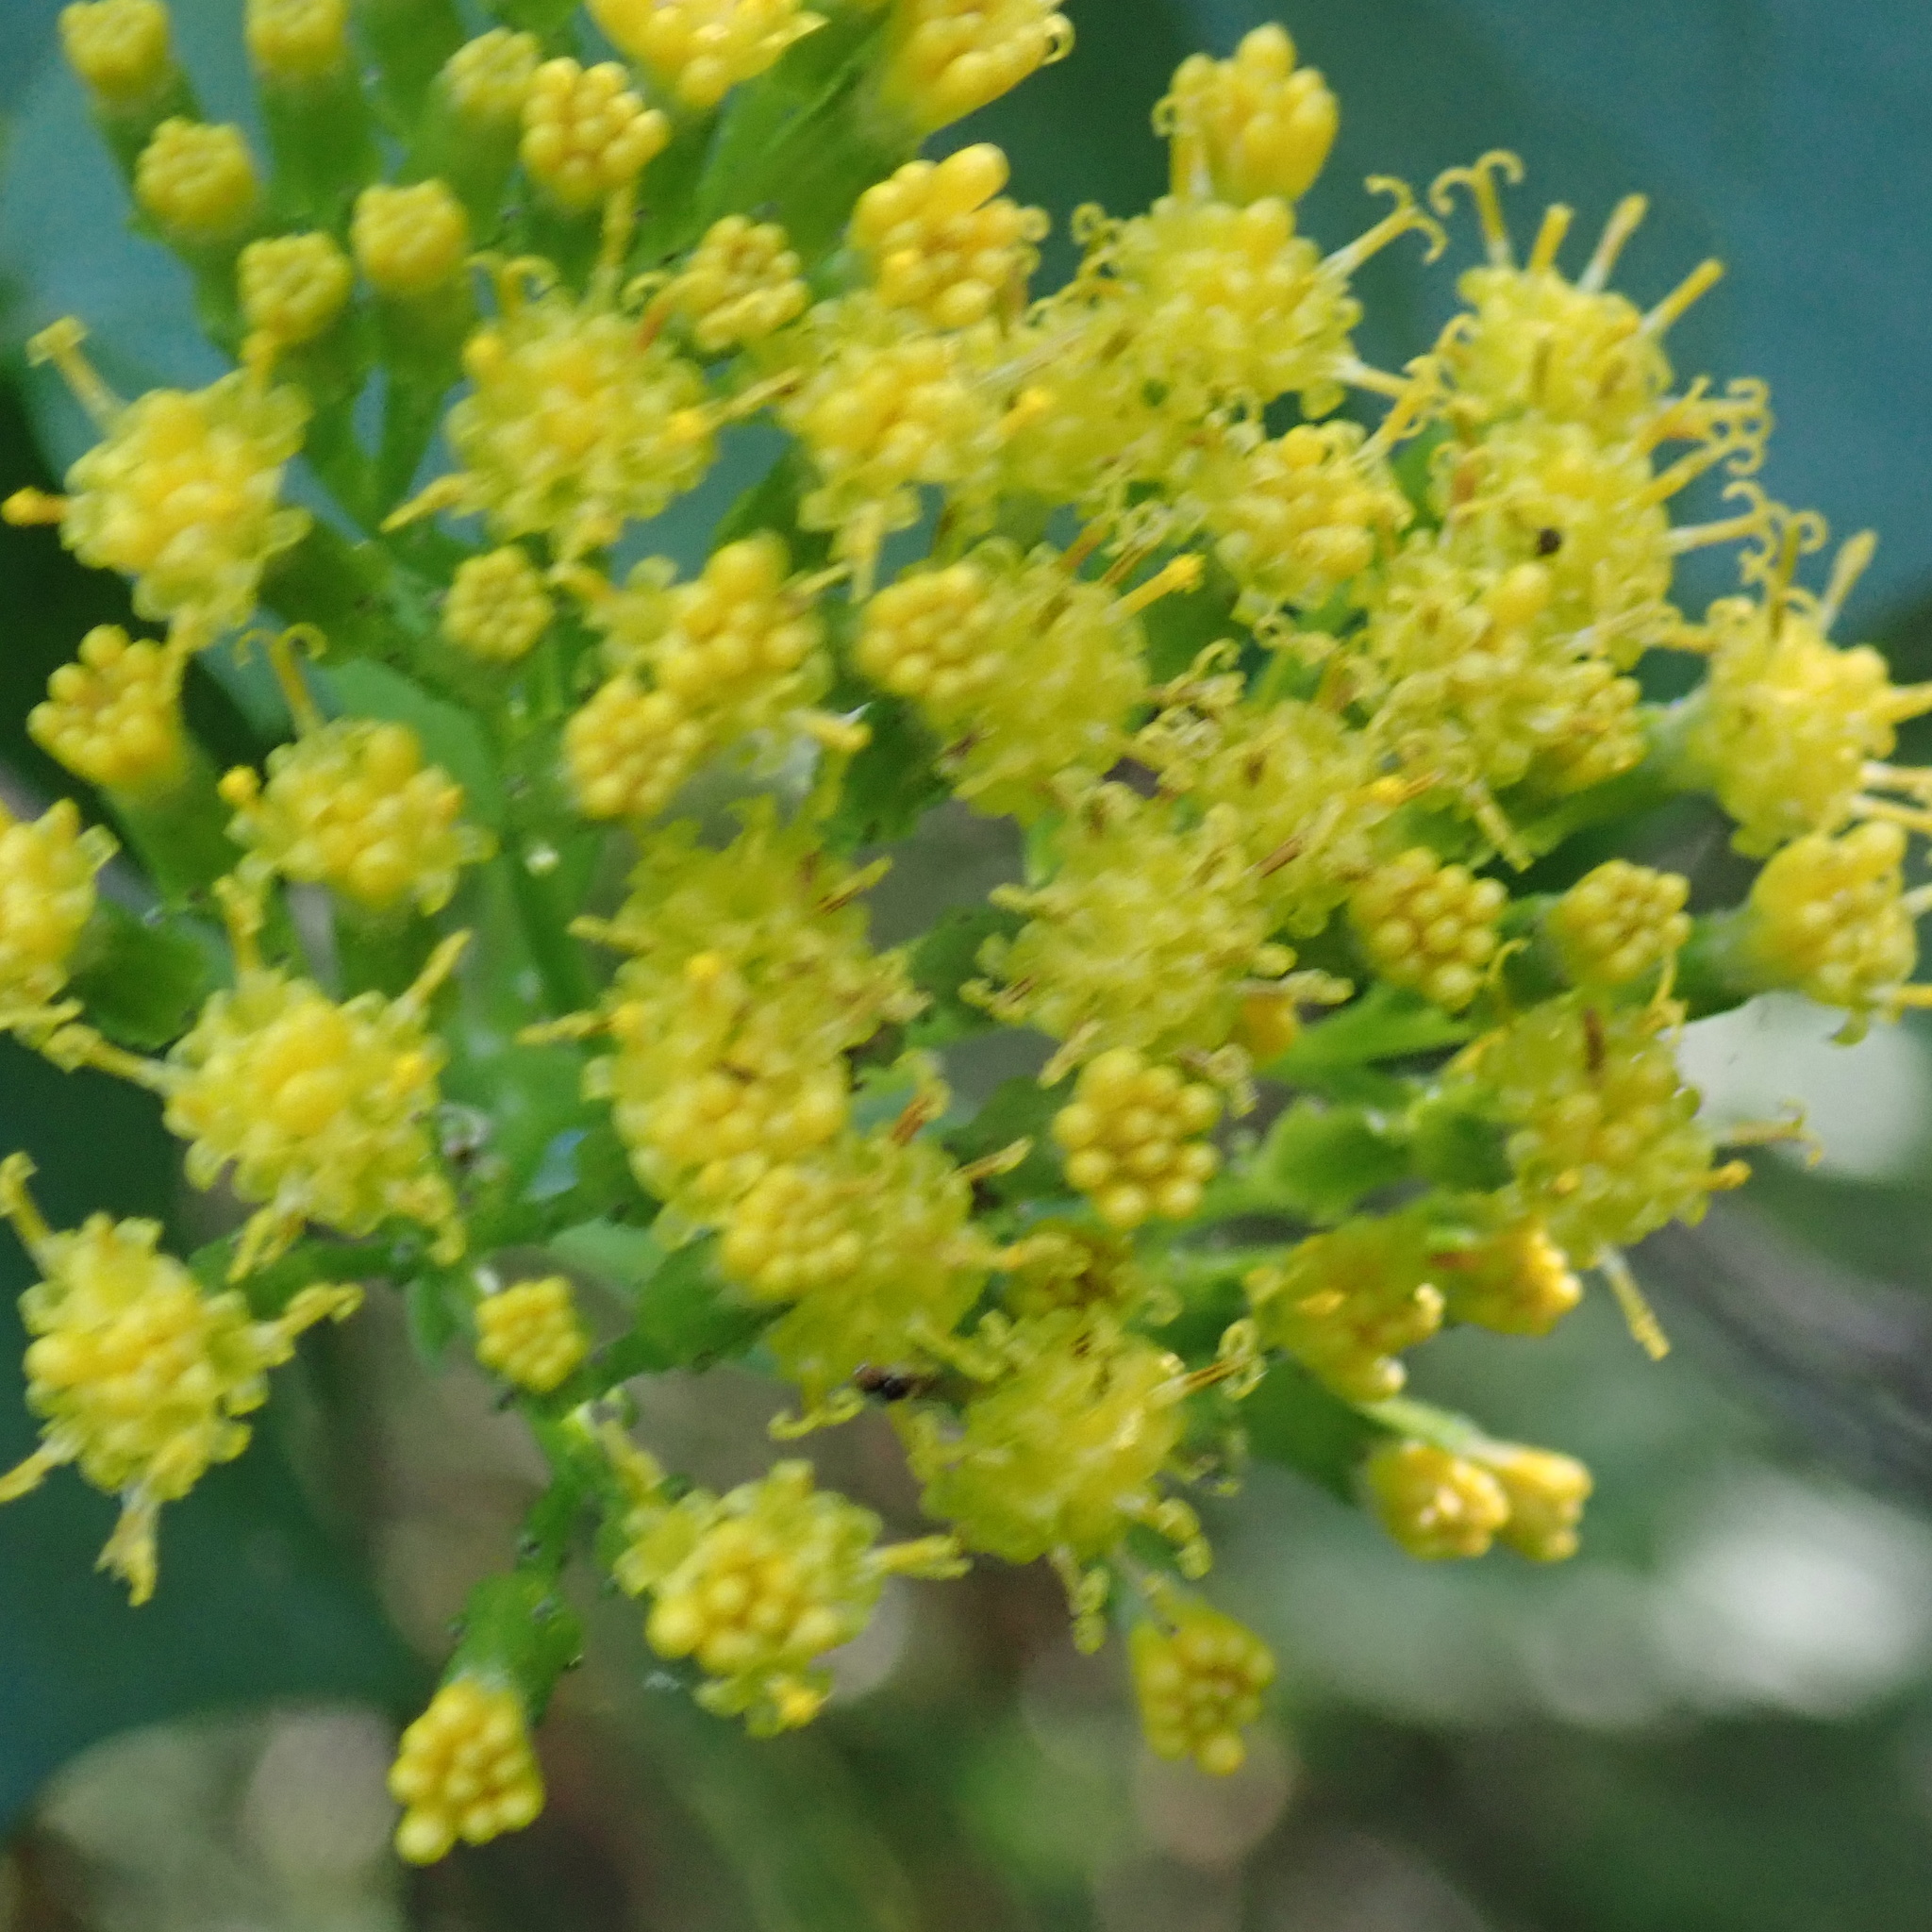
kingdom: Plantae
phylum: Tracheophyta
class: Magnoliopsida
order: Asterales
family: Asteraceae
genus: Delairea
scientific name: Delairea odorata
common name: Cape-ivy
